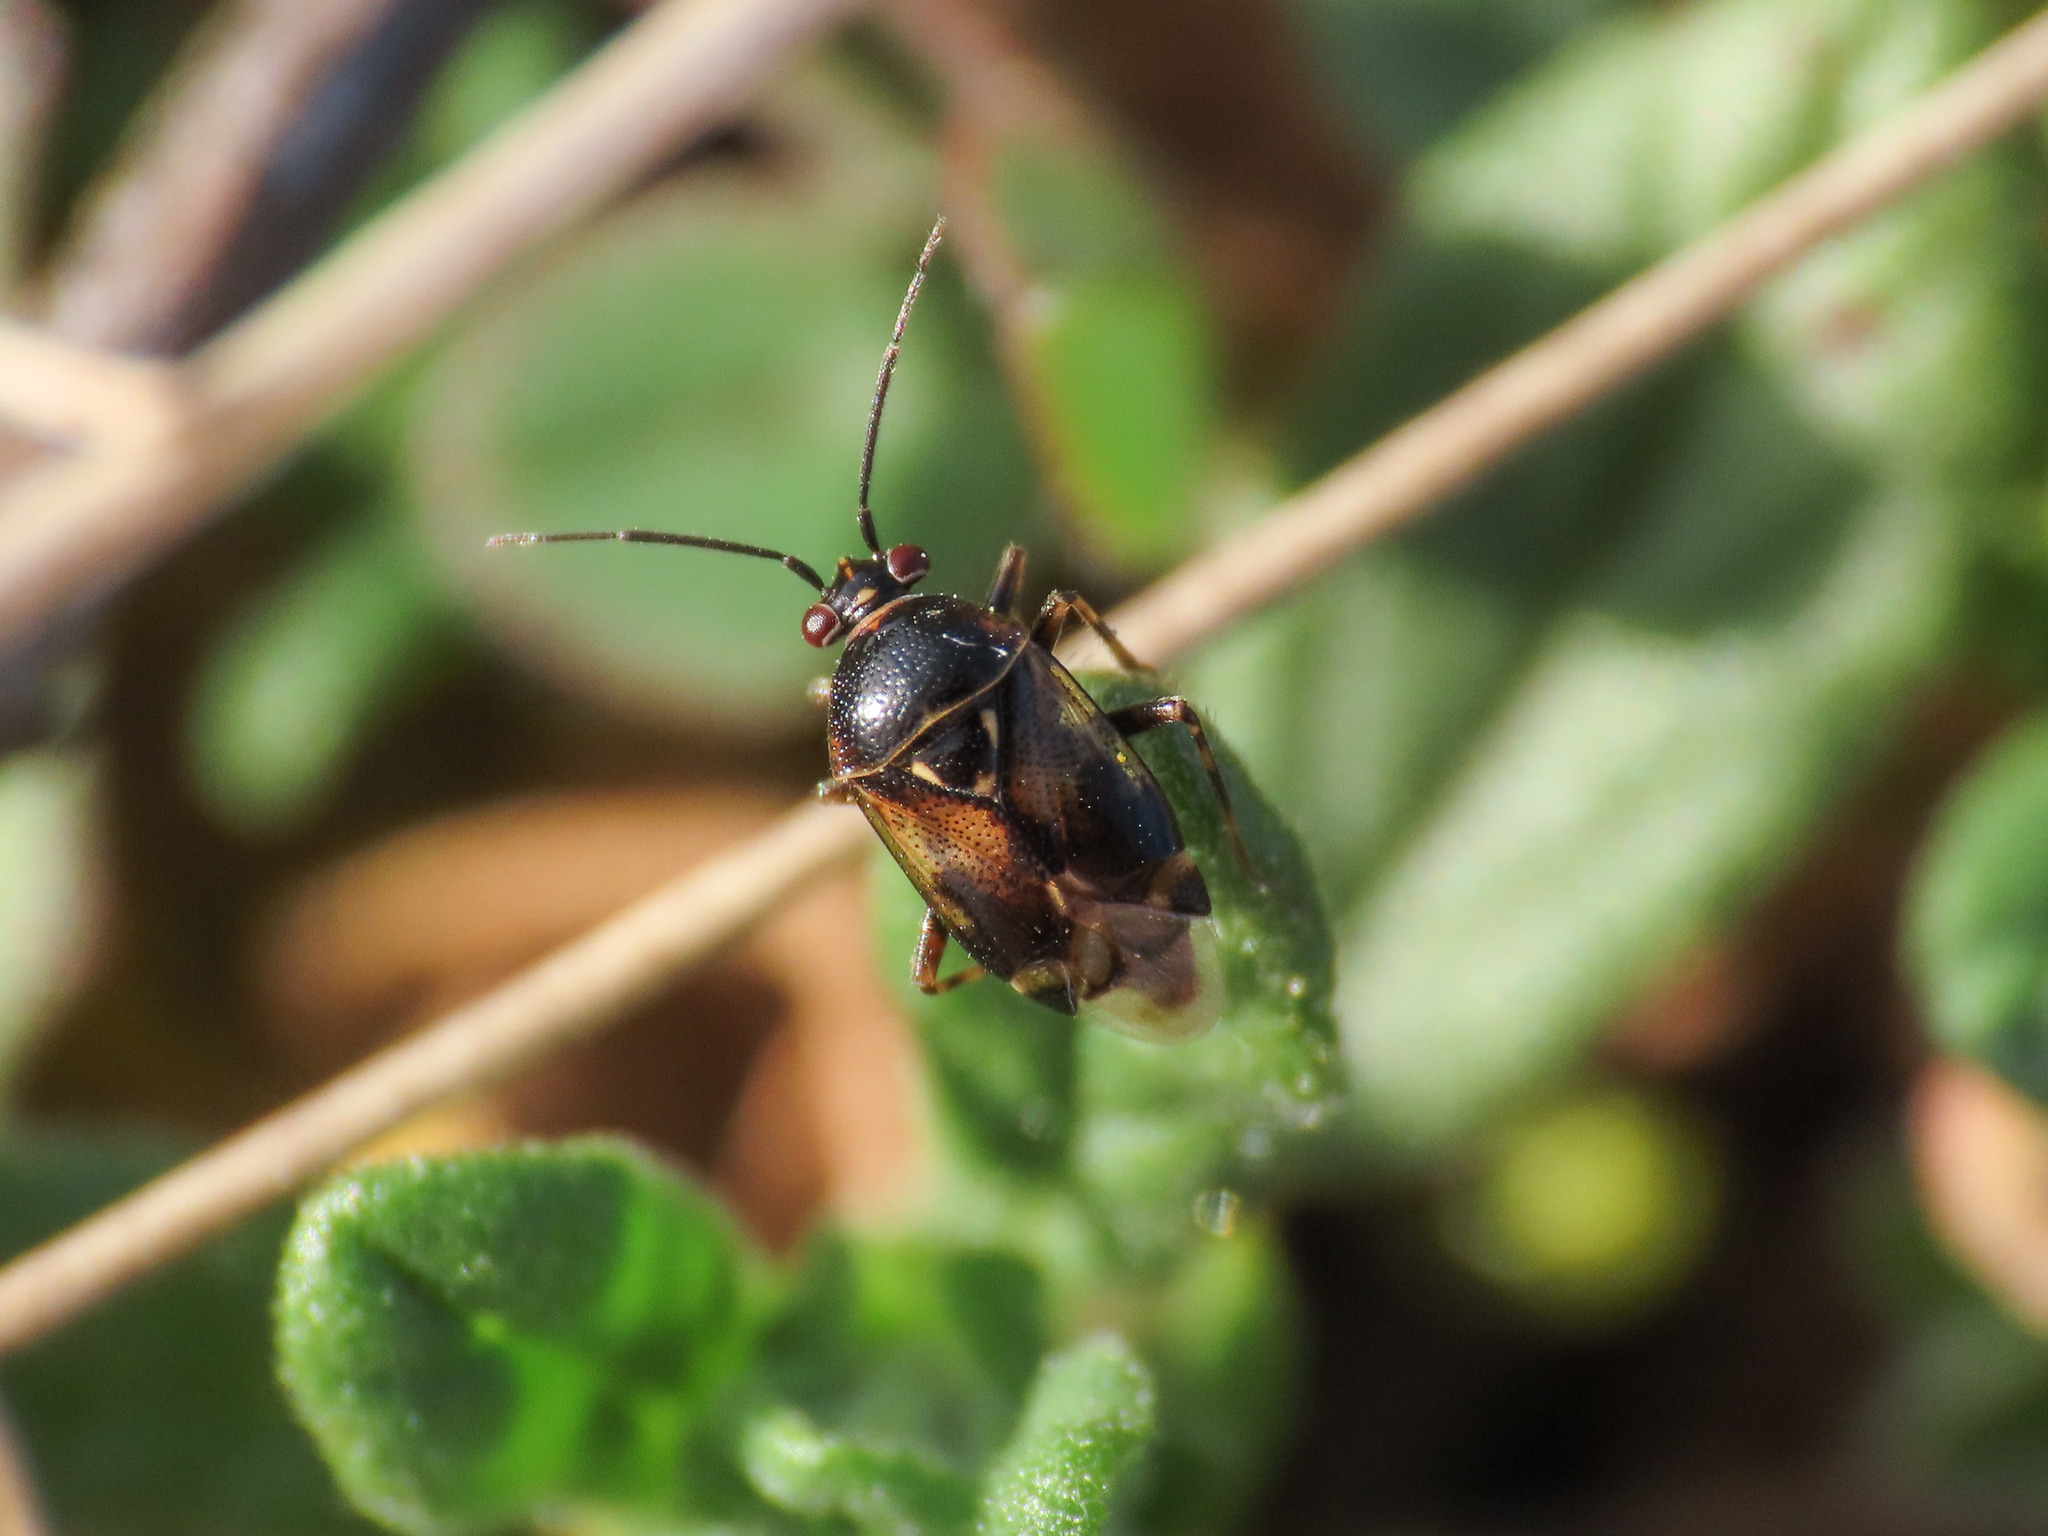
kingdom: Animalia
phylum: Arthropoda
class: Insecta
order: Hemiptera
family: Miridae
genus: Deraeocoris
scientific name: Deraeocoris serenus
